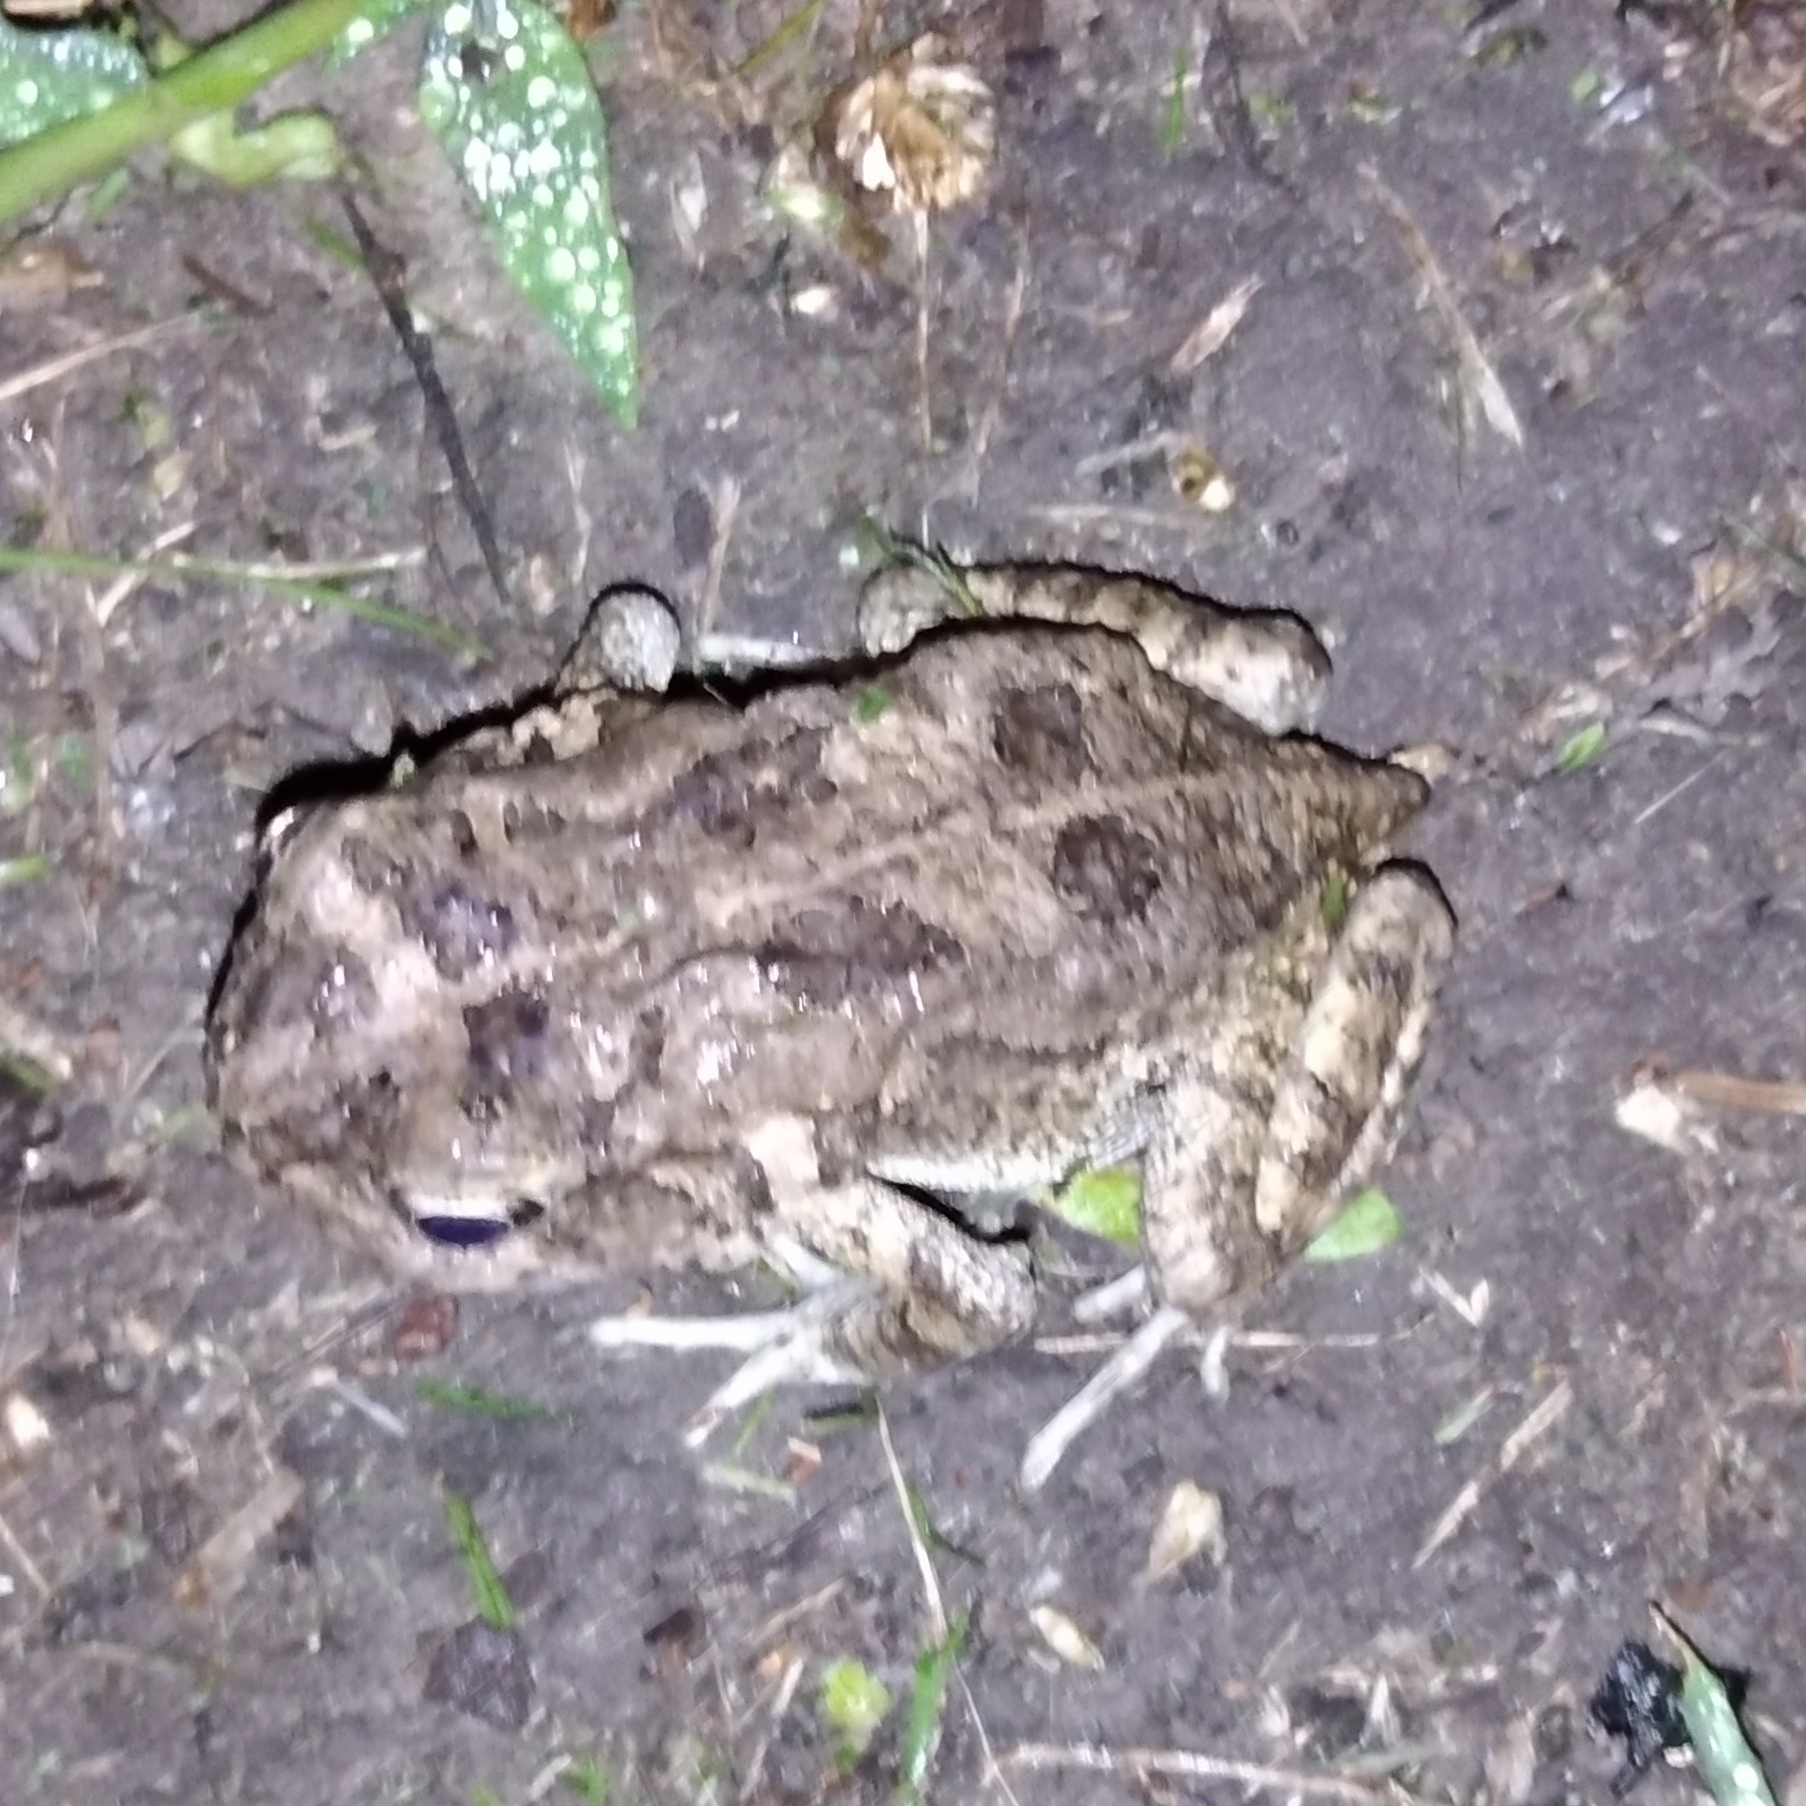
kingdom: Animalia
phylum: Chordata
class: Amphibia
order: Anura
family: Bufonidae
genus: Sclerophrys
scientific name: Sclerophrys gutturalis
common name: African common toad
